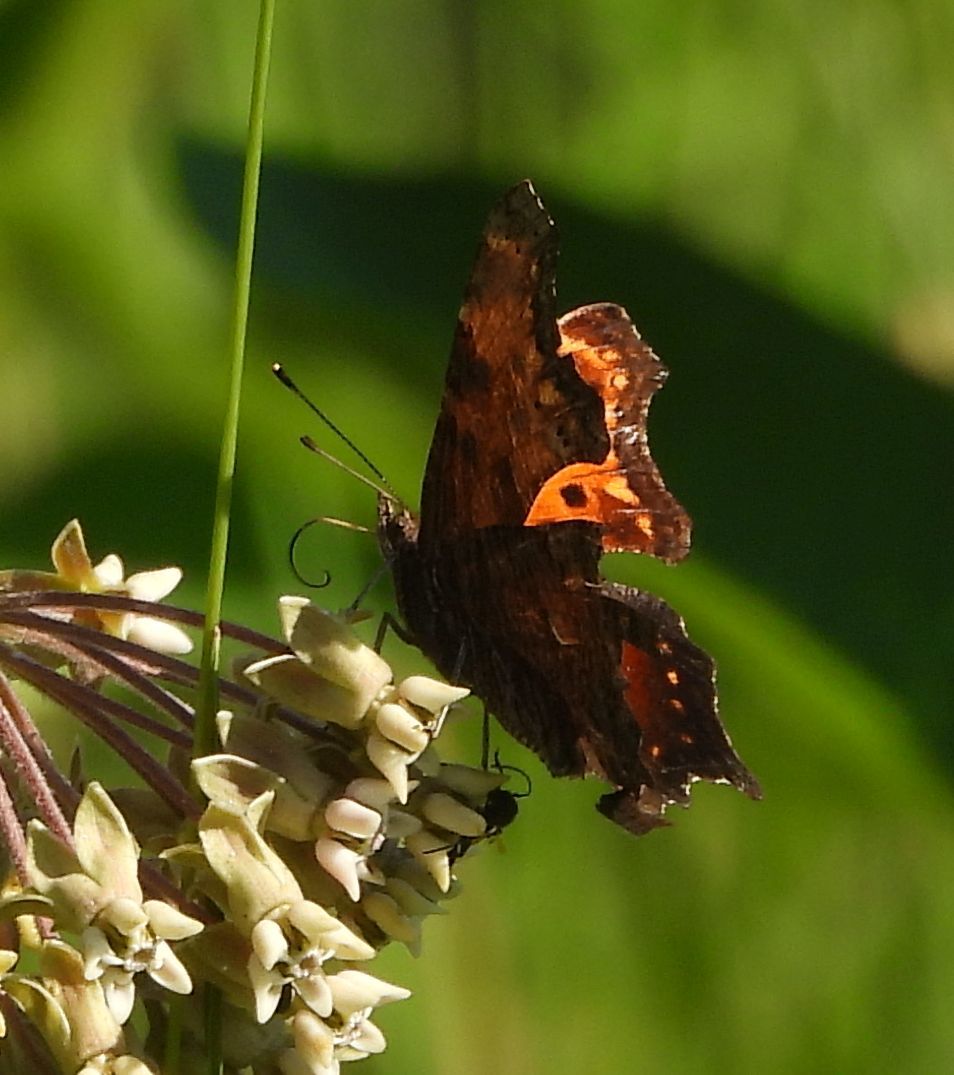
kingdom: Animalia
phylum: Arthropoda
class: Insecta
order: Lepidoptera
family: Nymphalidae
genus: Polygonia
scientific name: Polygonia progne
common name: Gray comma
